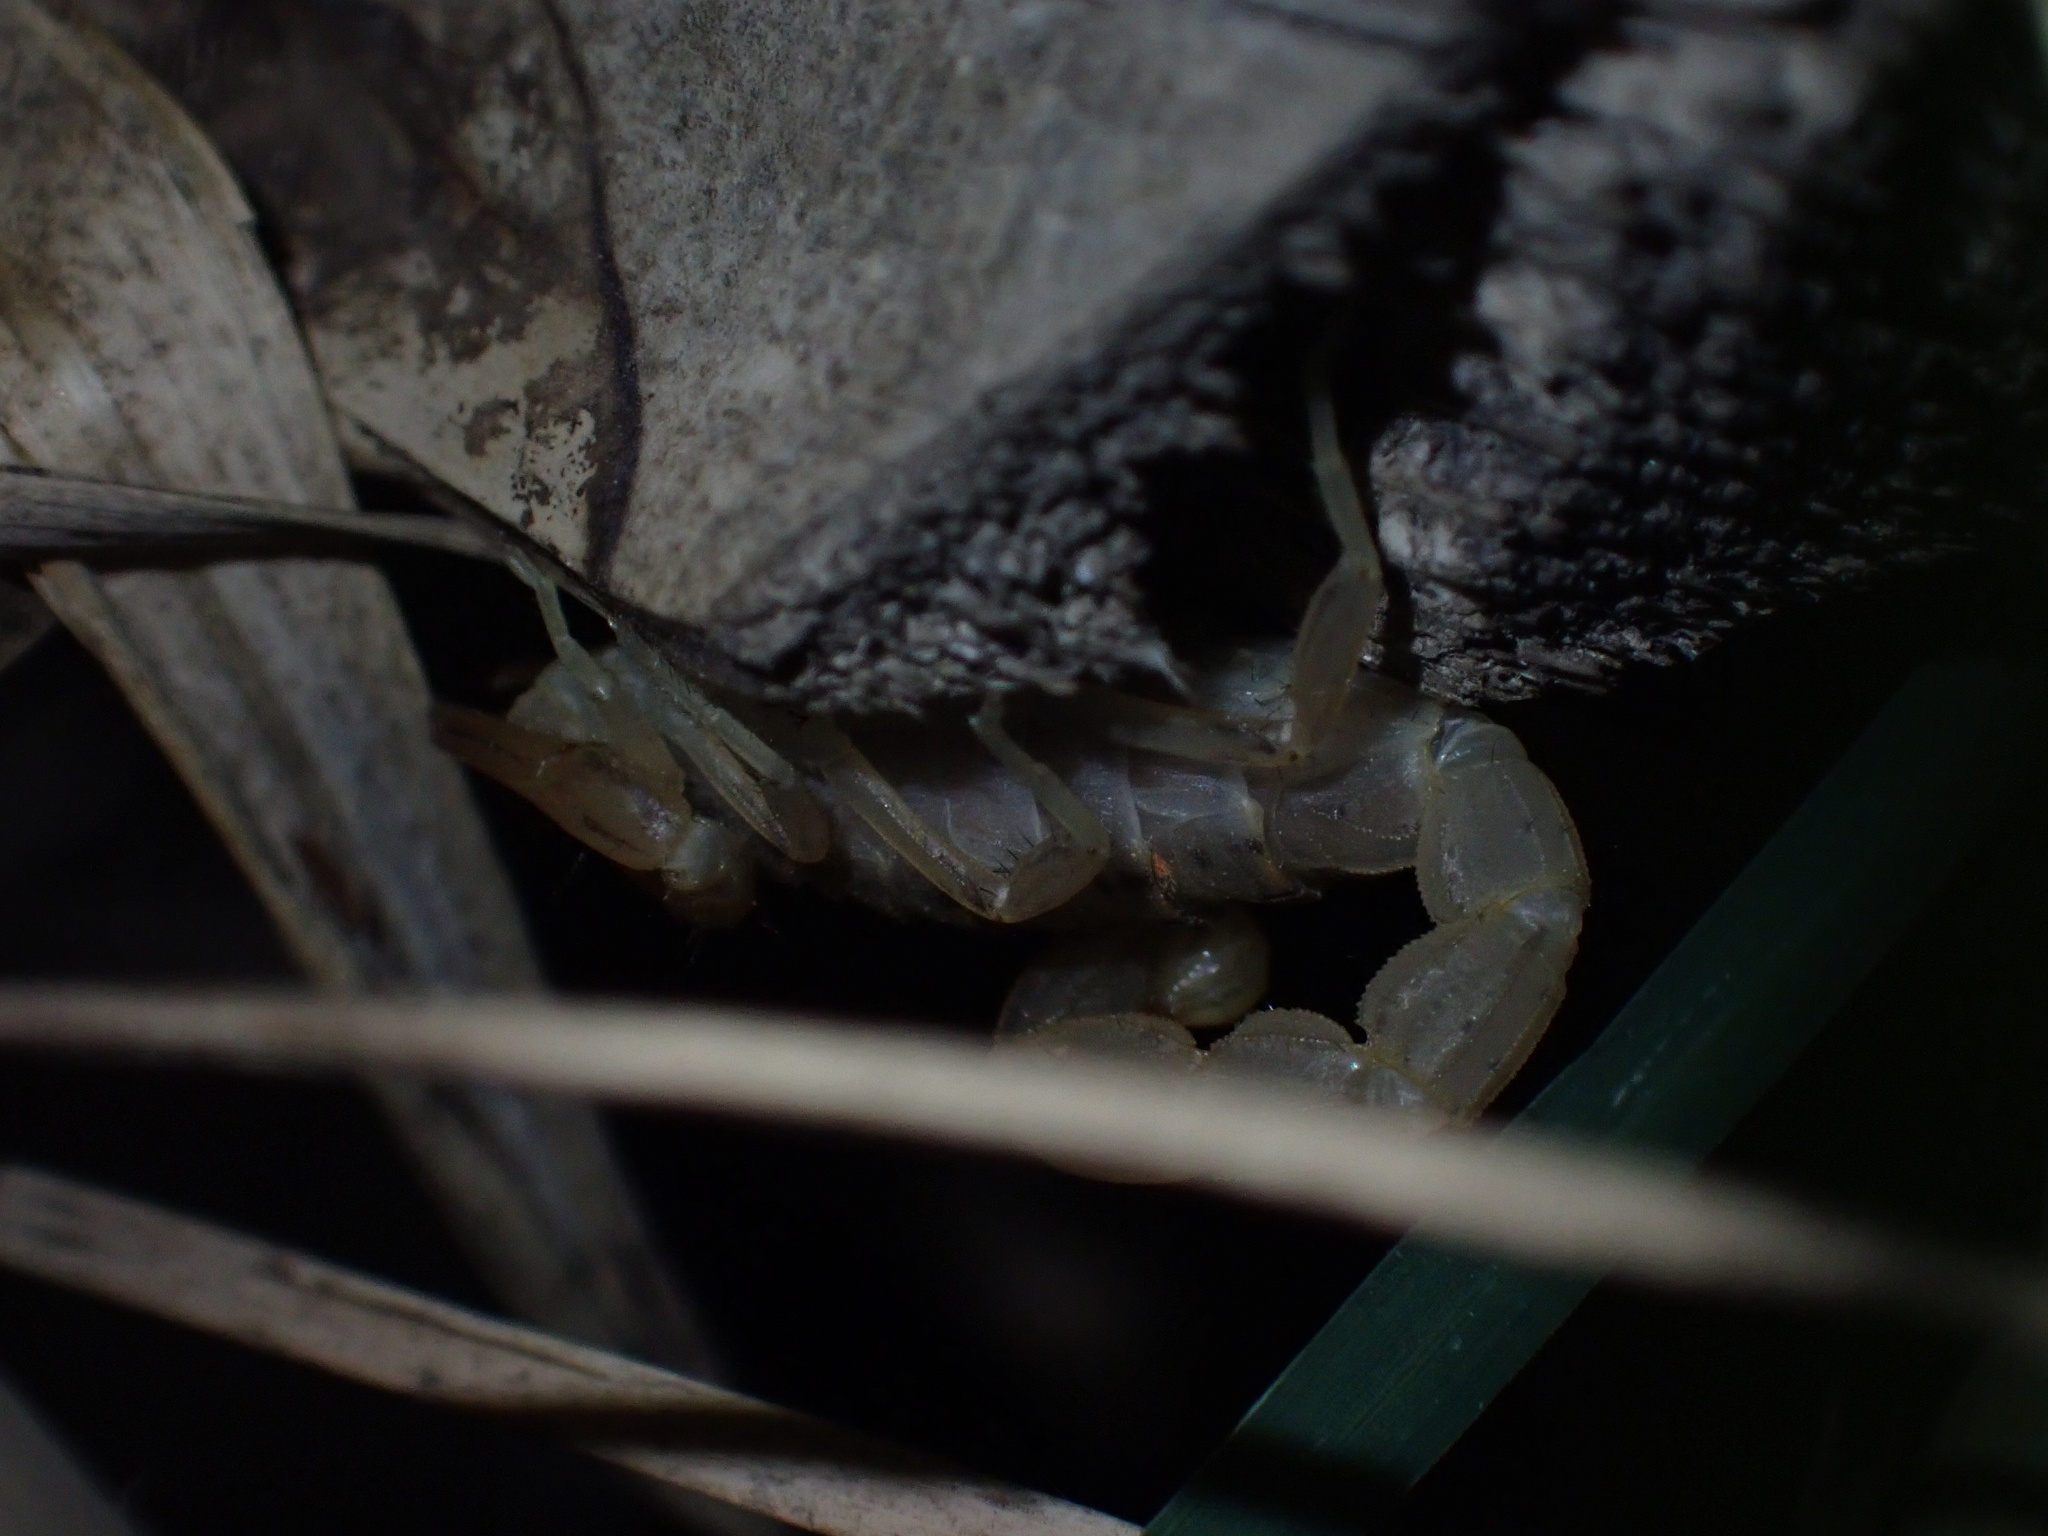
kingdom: Animalia
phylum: Arthropoda
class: Arachnida
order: Scorpiones
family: Buthidae
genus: Mesobuthus
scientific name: Mesobuthus mirshamsii
